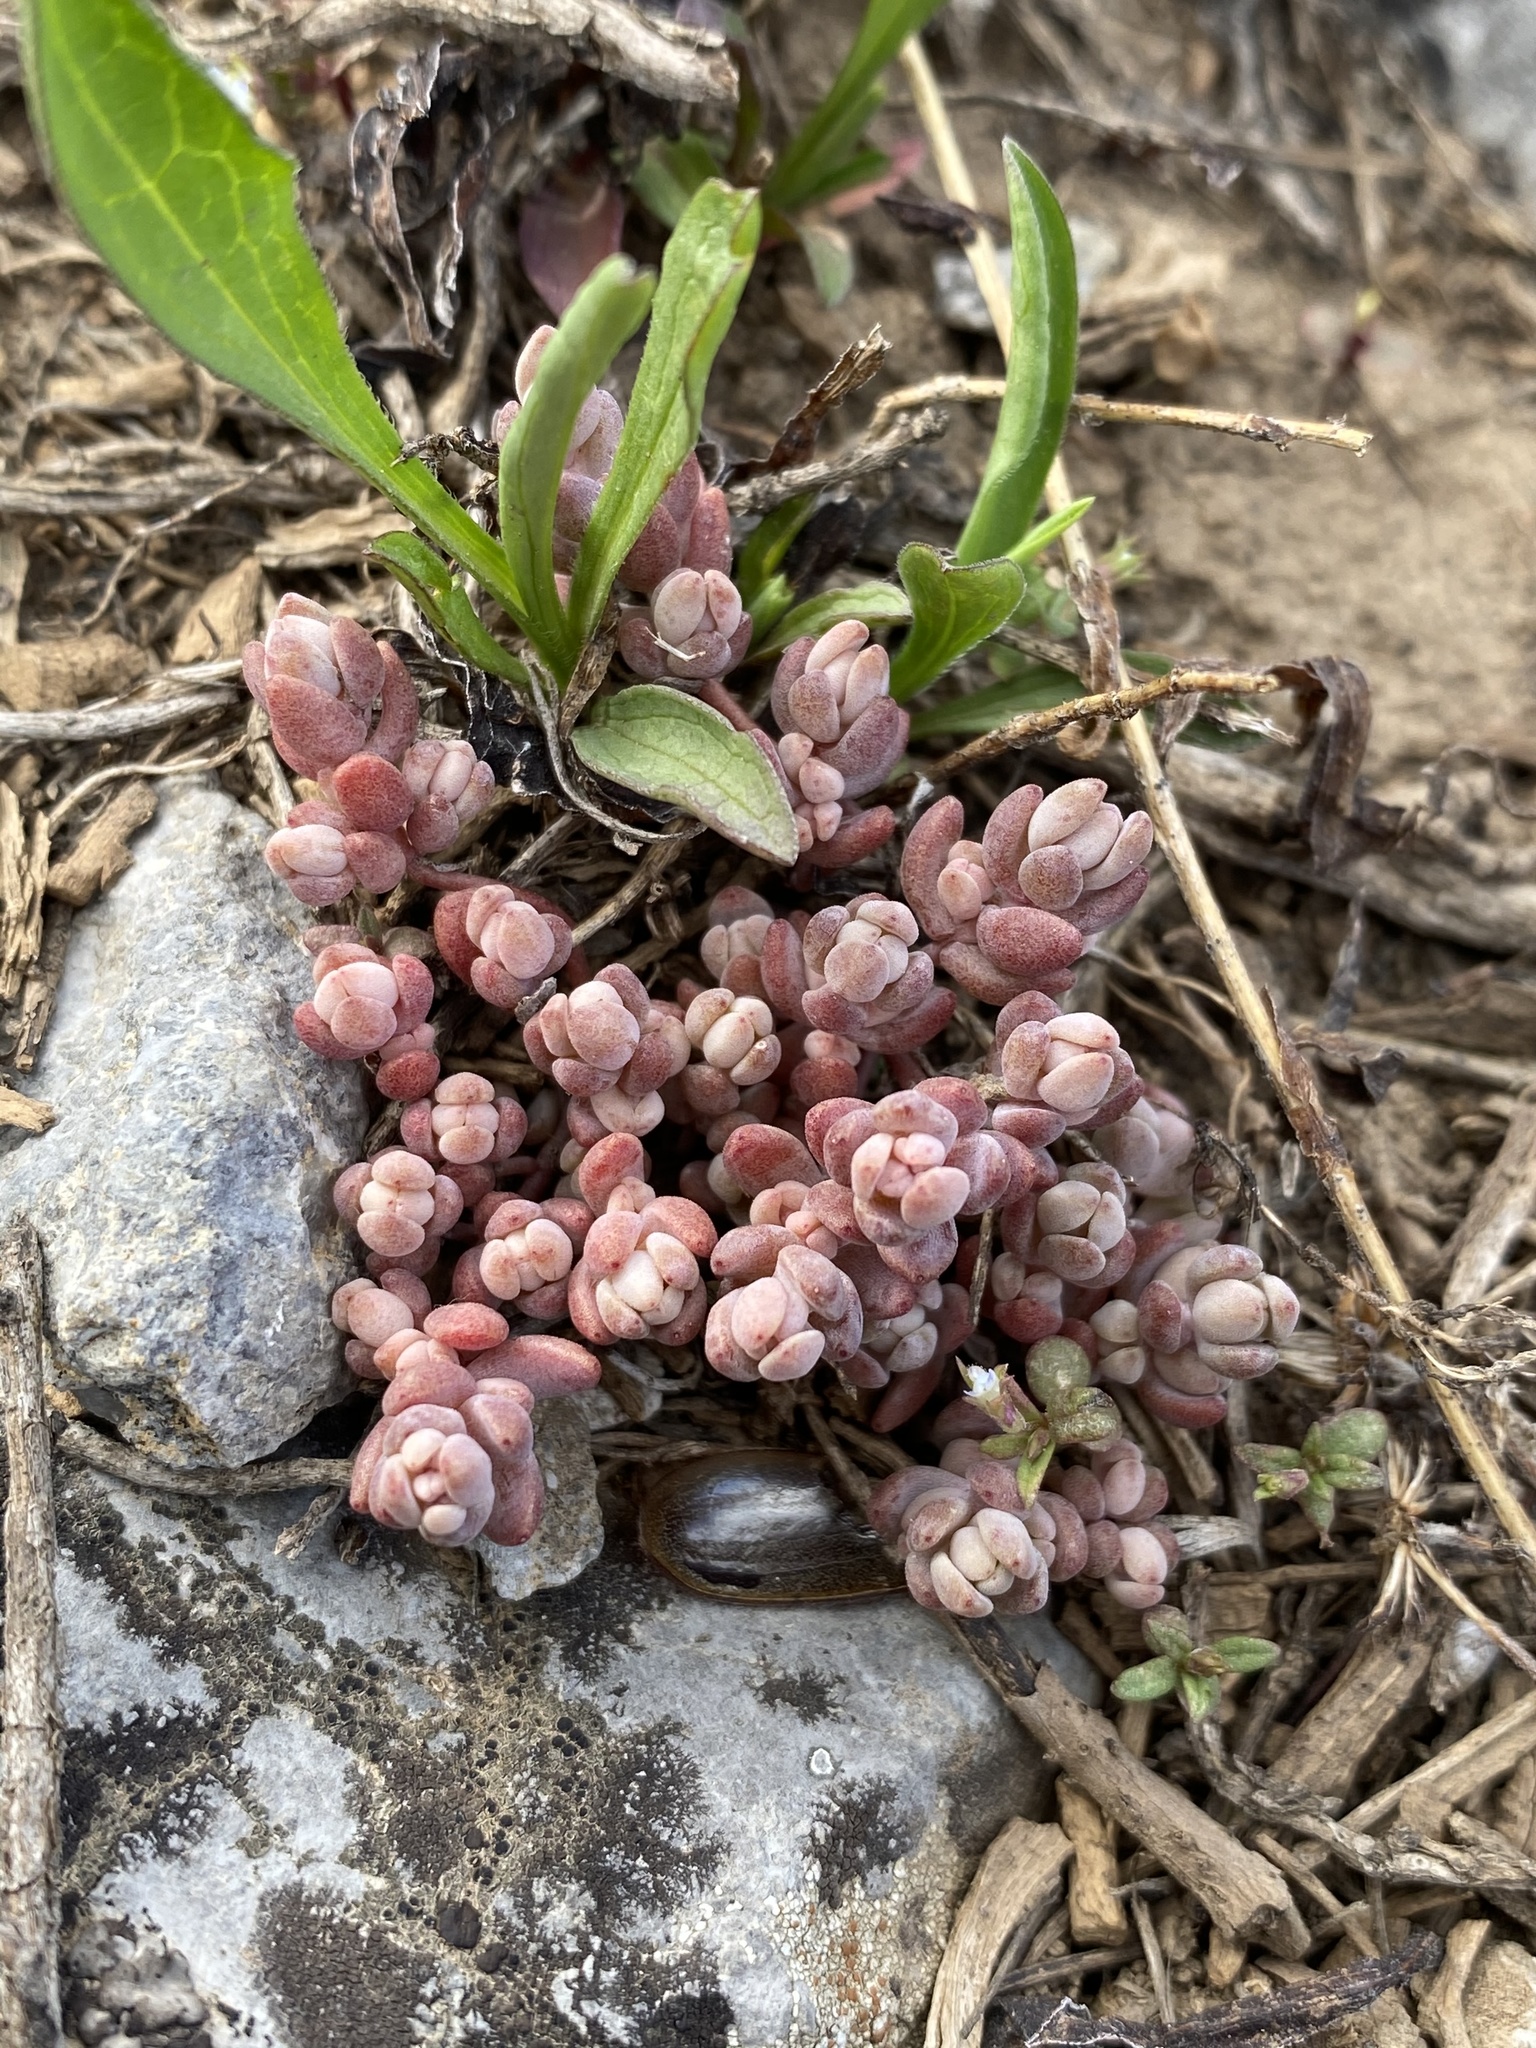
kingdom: Plantae
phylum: Tracheophyta
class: Magnoliopsida
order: Saxifragales
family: Crassulaceae
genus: Sedum
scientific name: Sedum debile
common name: Weak-stem stonecrop
